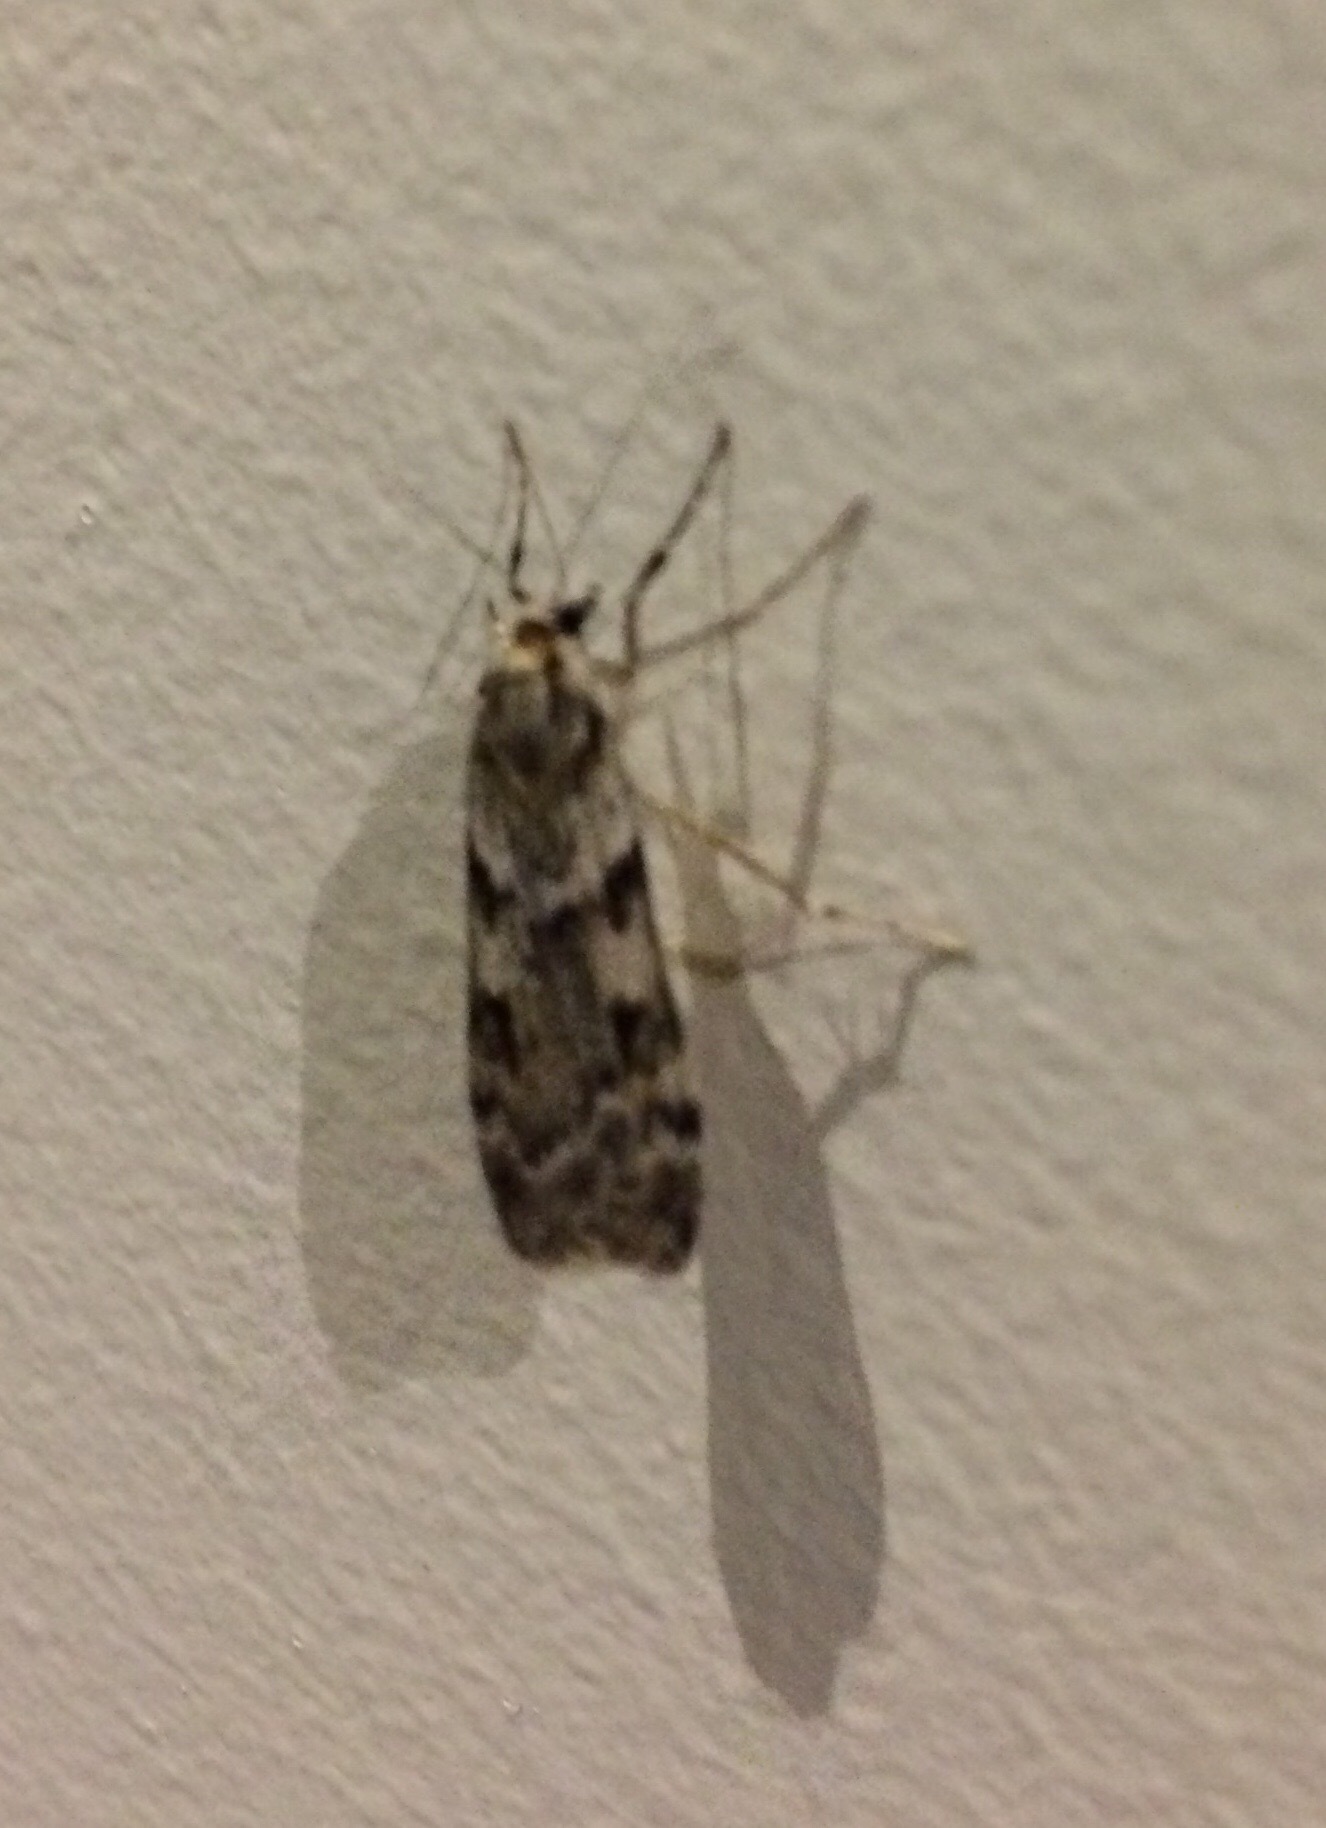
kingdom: Animalia
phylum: Arthropoda
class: Insecta
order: Lepidoptera
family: Crambidae
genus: Scoparia
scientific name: Scoparia halopis
